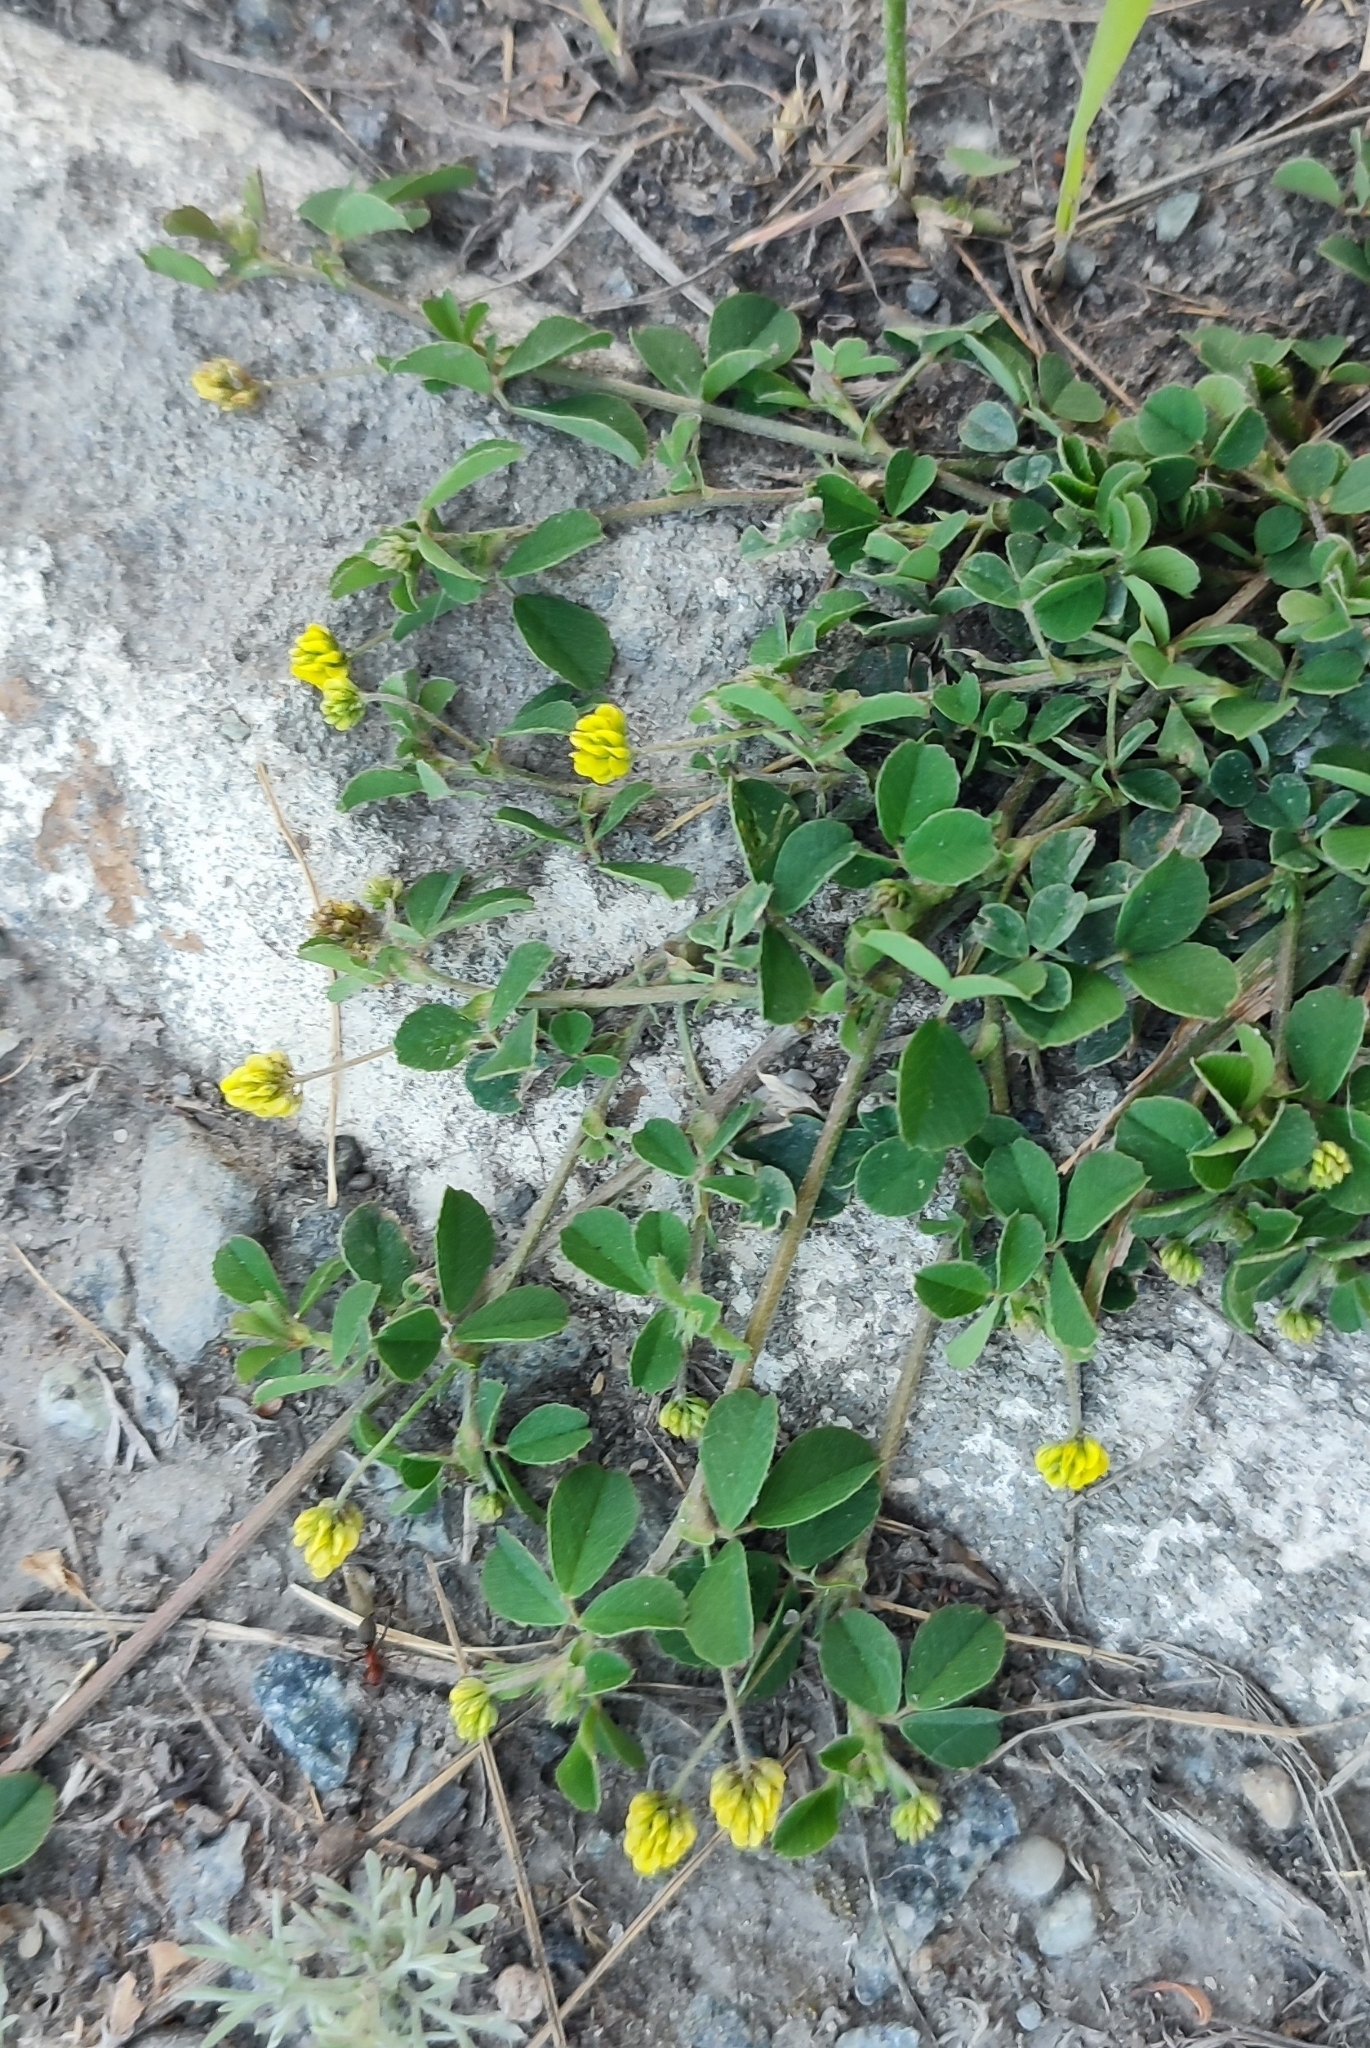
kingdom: Plantae
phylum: Tracheophyta
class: Magnoliopsida
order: Fabales
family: Fabaceae
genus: Medicago
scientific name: Medicago lupulina
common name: Black medick
